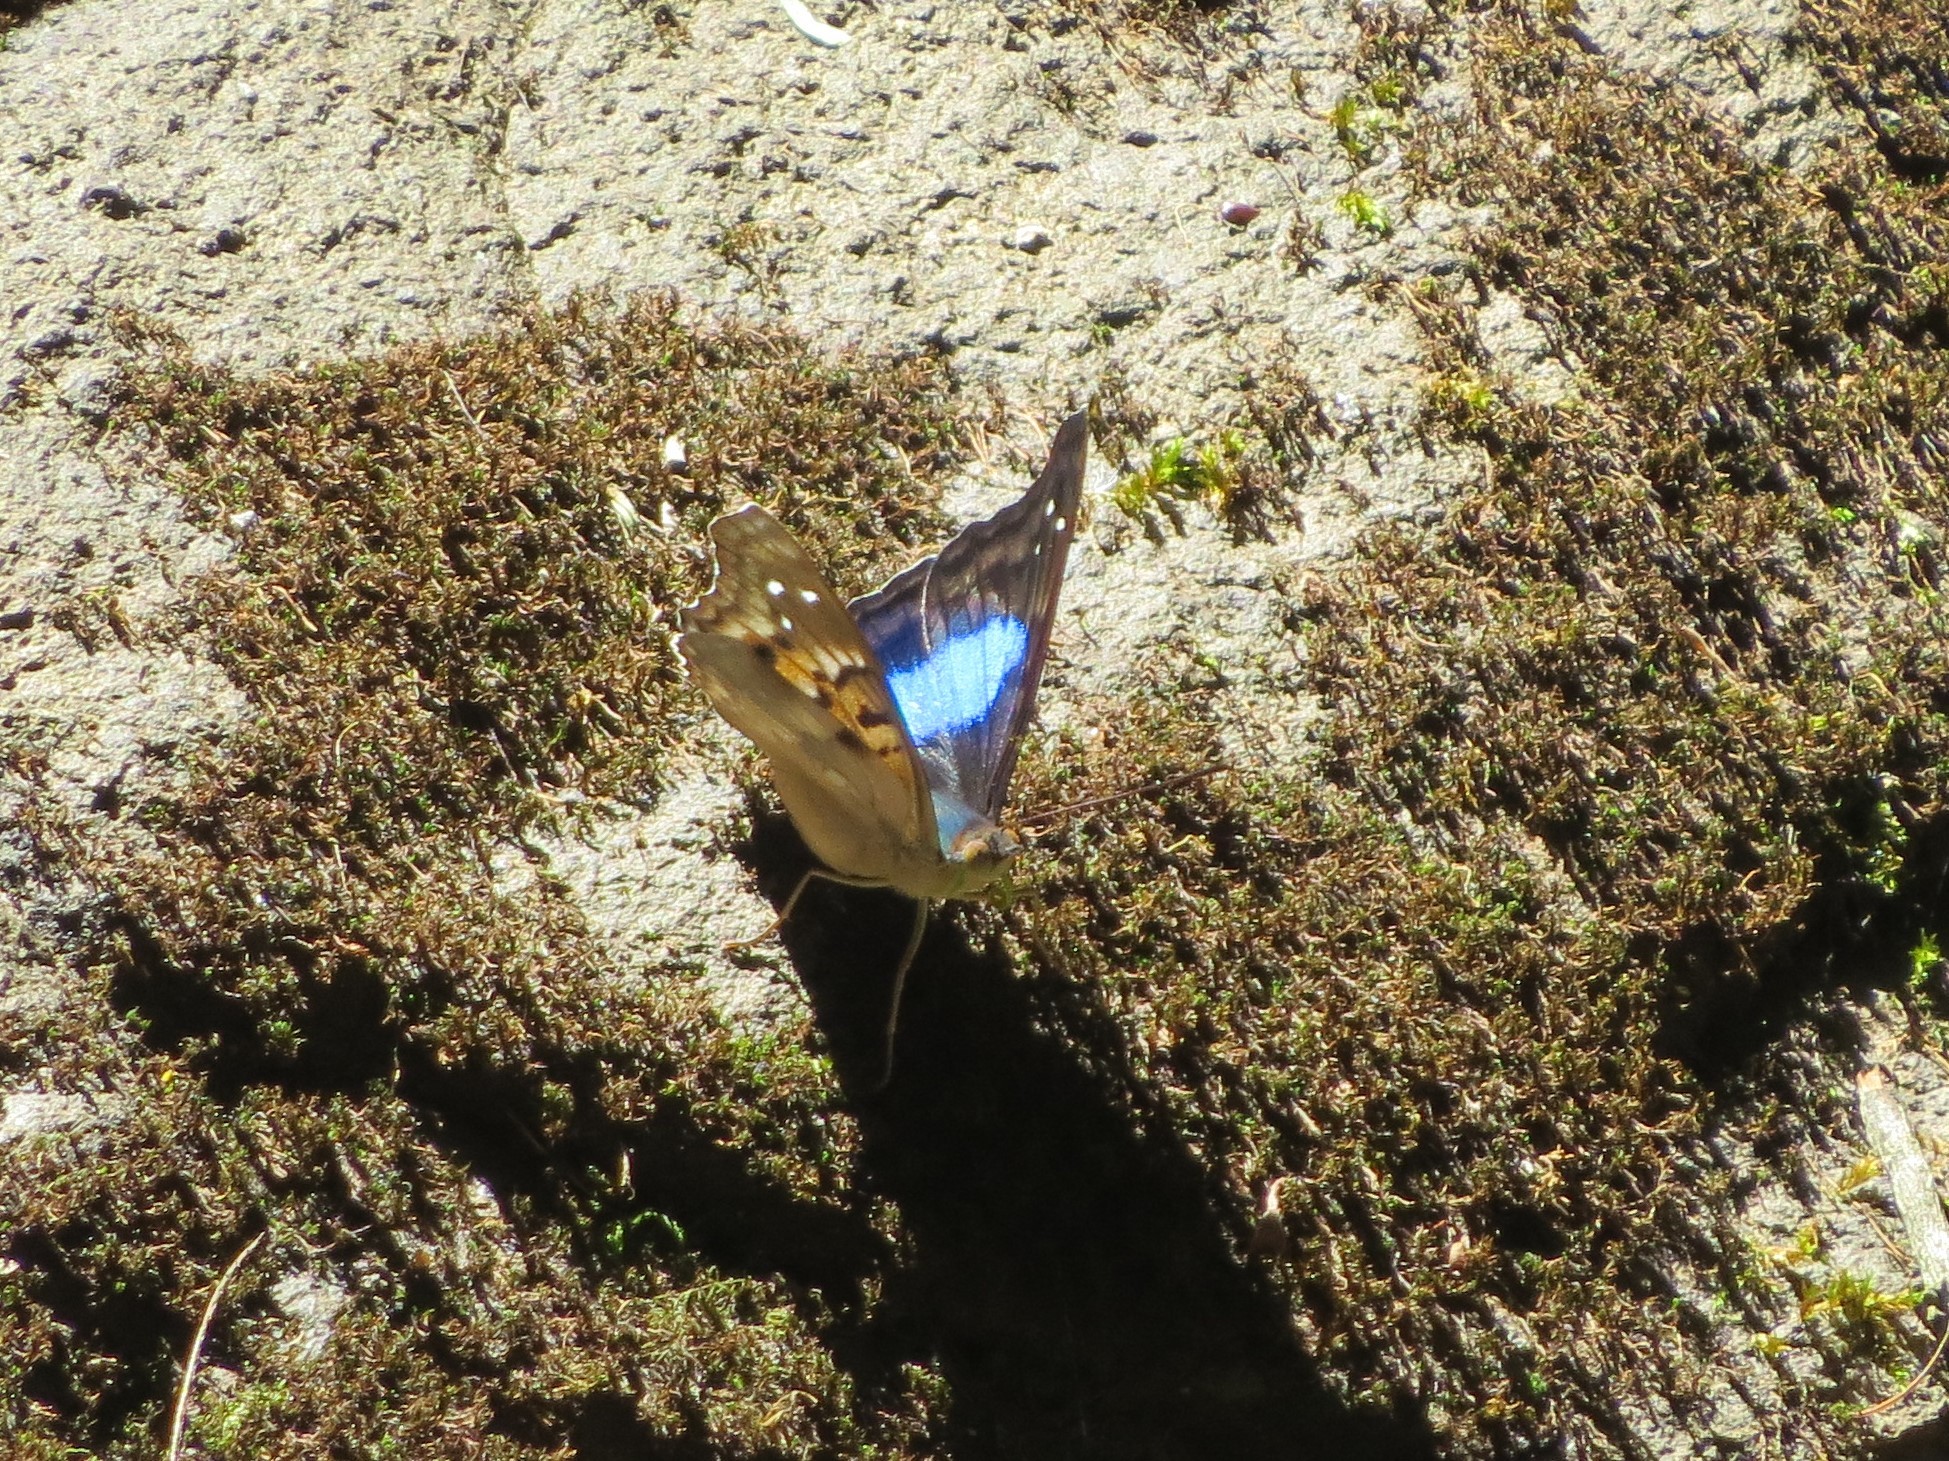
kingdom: Animalia
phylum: Arthropoda
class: Insecta
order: Lepidoptera
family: Nymphalidae
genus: Doxocopa
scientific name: Doxocopa laurentia
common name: Turquoise emperor
